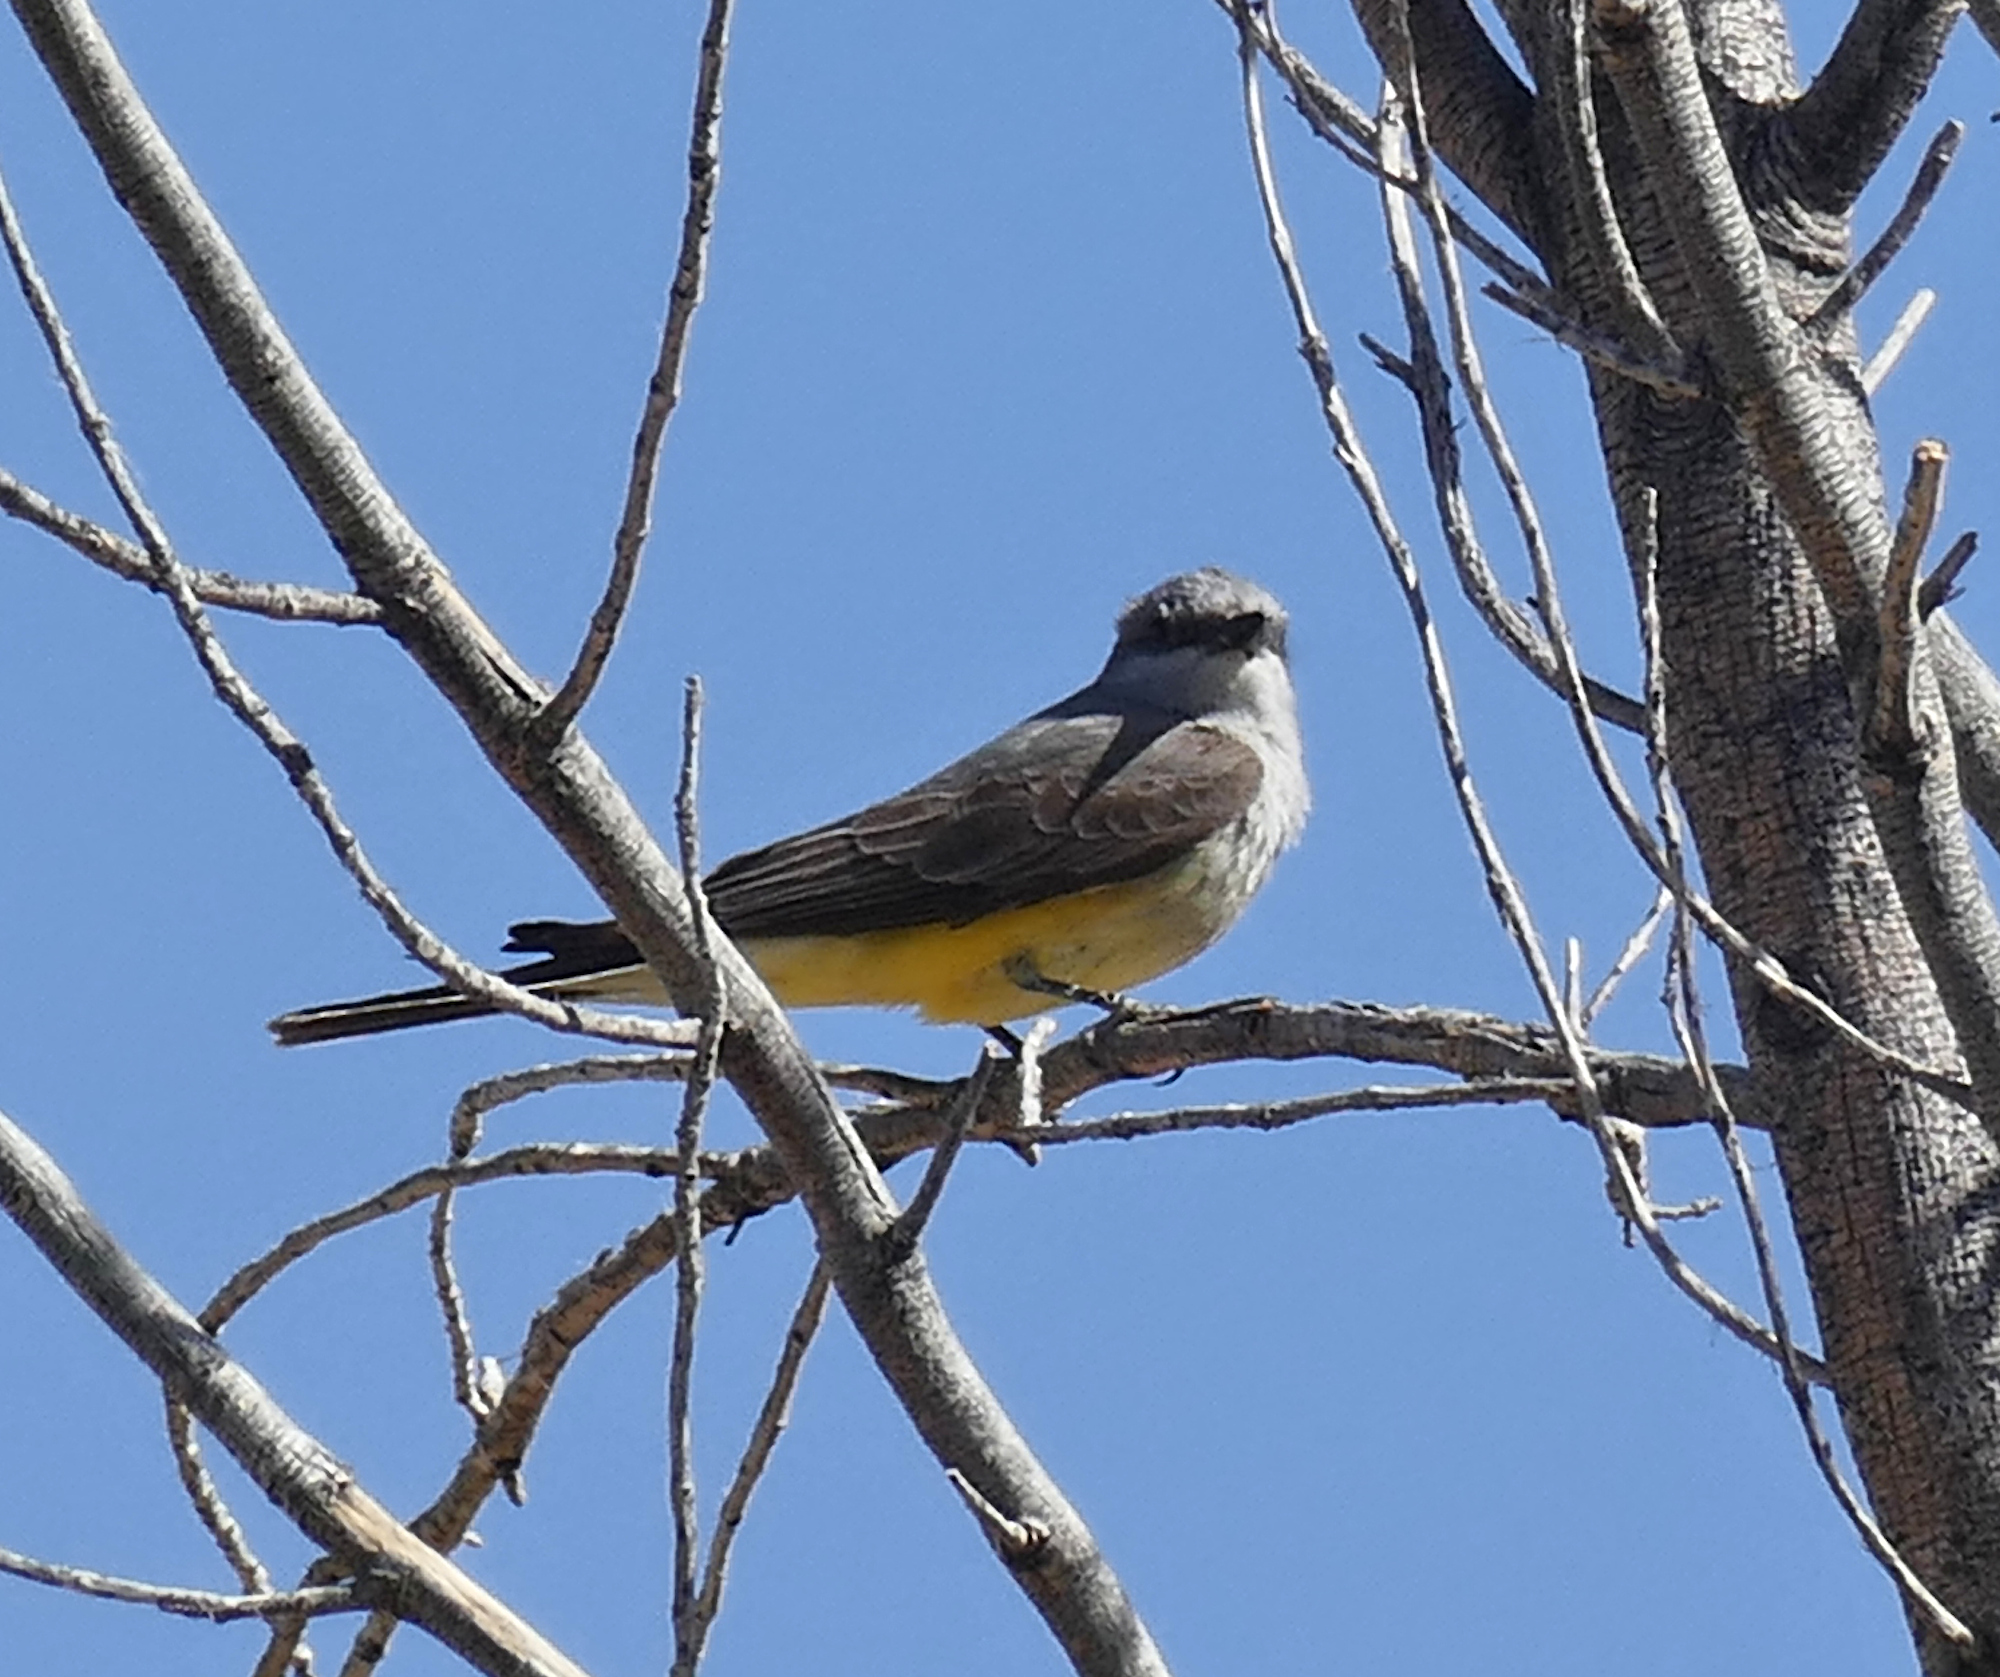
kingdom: Animalia
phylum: Chordata
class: Aves
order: Passeriformes
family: Tyrannidae
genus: Tyrannus
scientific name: Tyrannus verticalis
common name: Western kingbird
